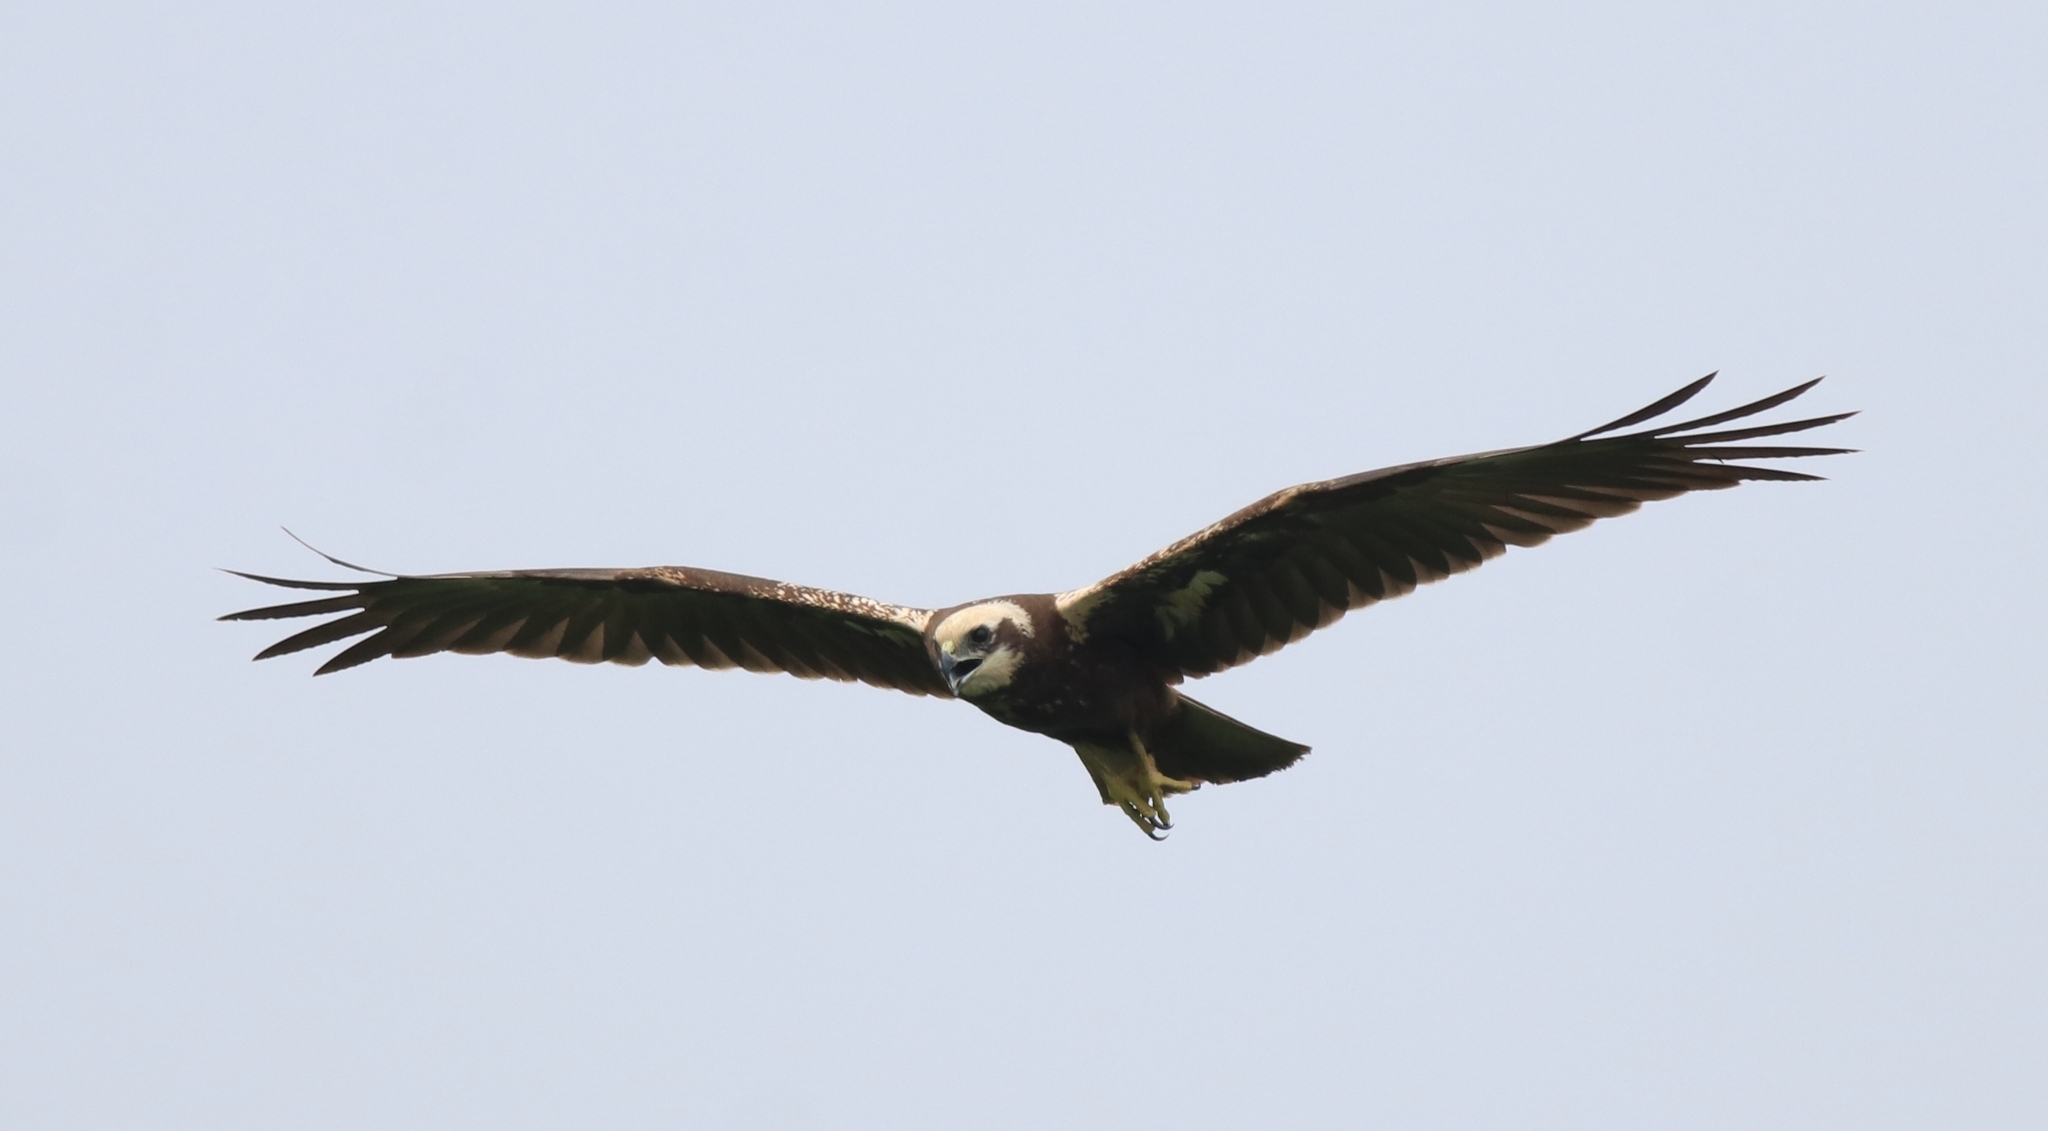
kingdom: Animalia
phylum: Chordata
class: Aves
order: Accipitriformes
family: Accipitridae
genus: Circus
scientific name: Circus aeruginosus
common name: Western marsh harrier
